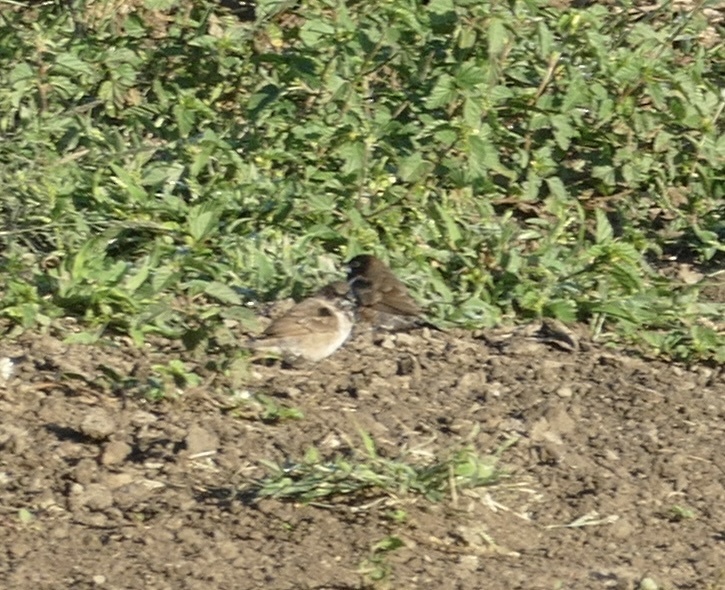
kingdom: Animalia
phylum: Chordata
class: Aves
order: Passeriformes
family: Estrildidae
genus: Lonchura
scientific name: Lonchura cucullata
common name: Bronze mannikin
